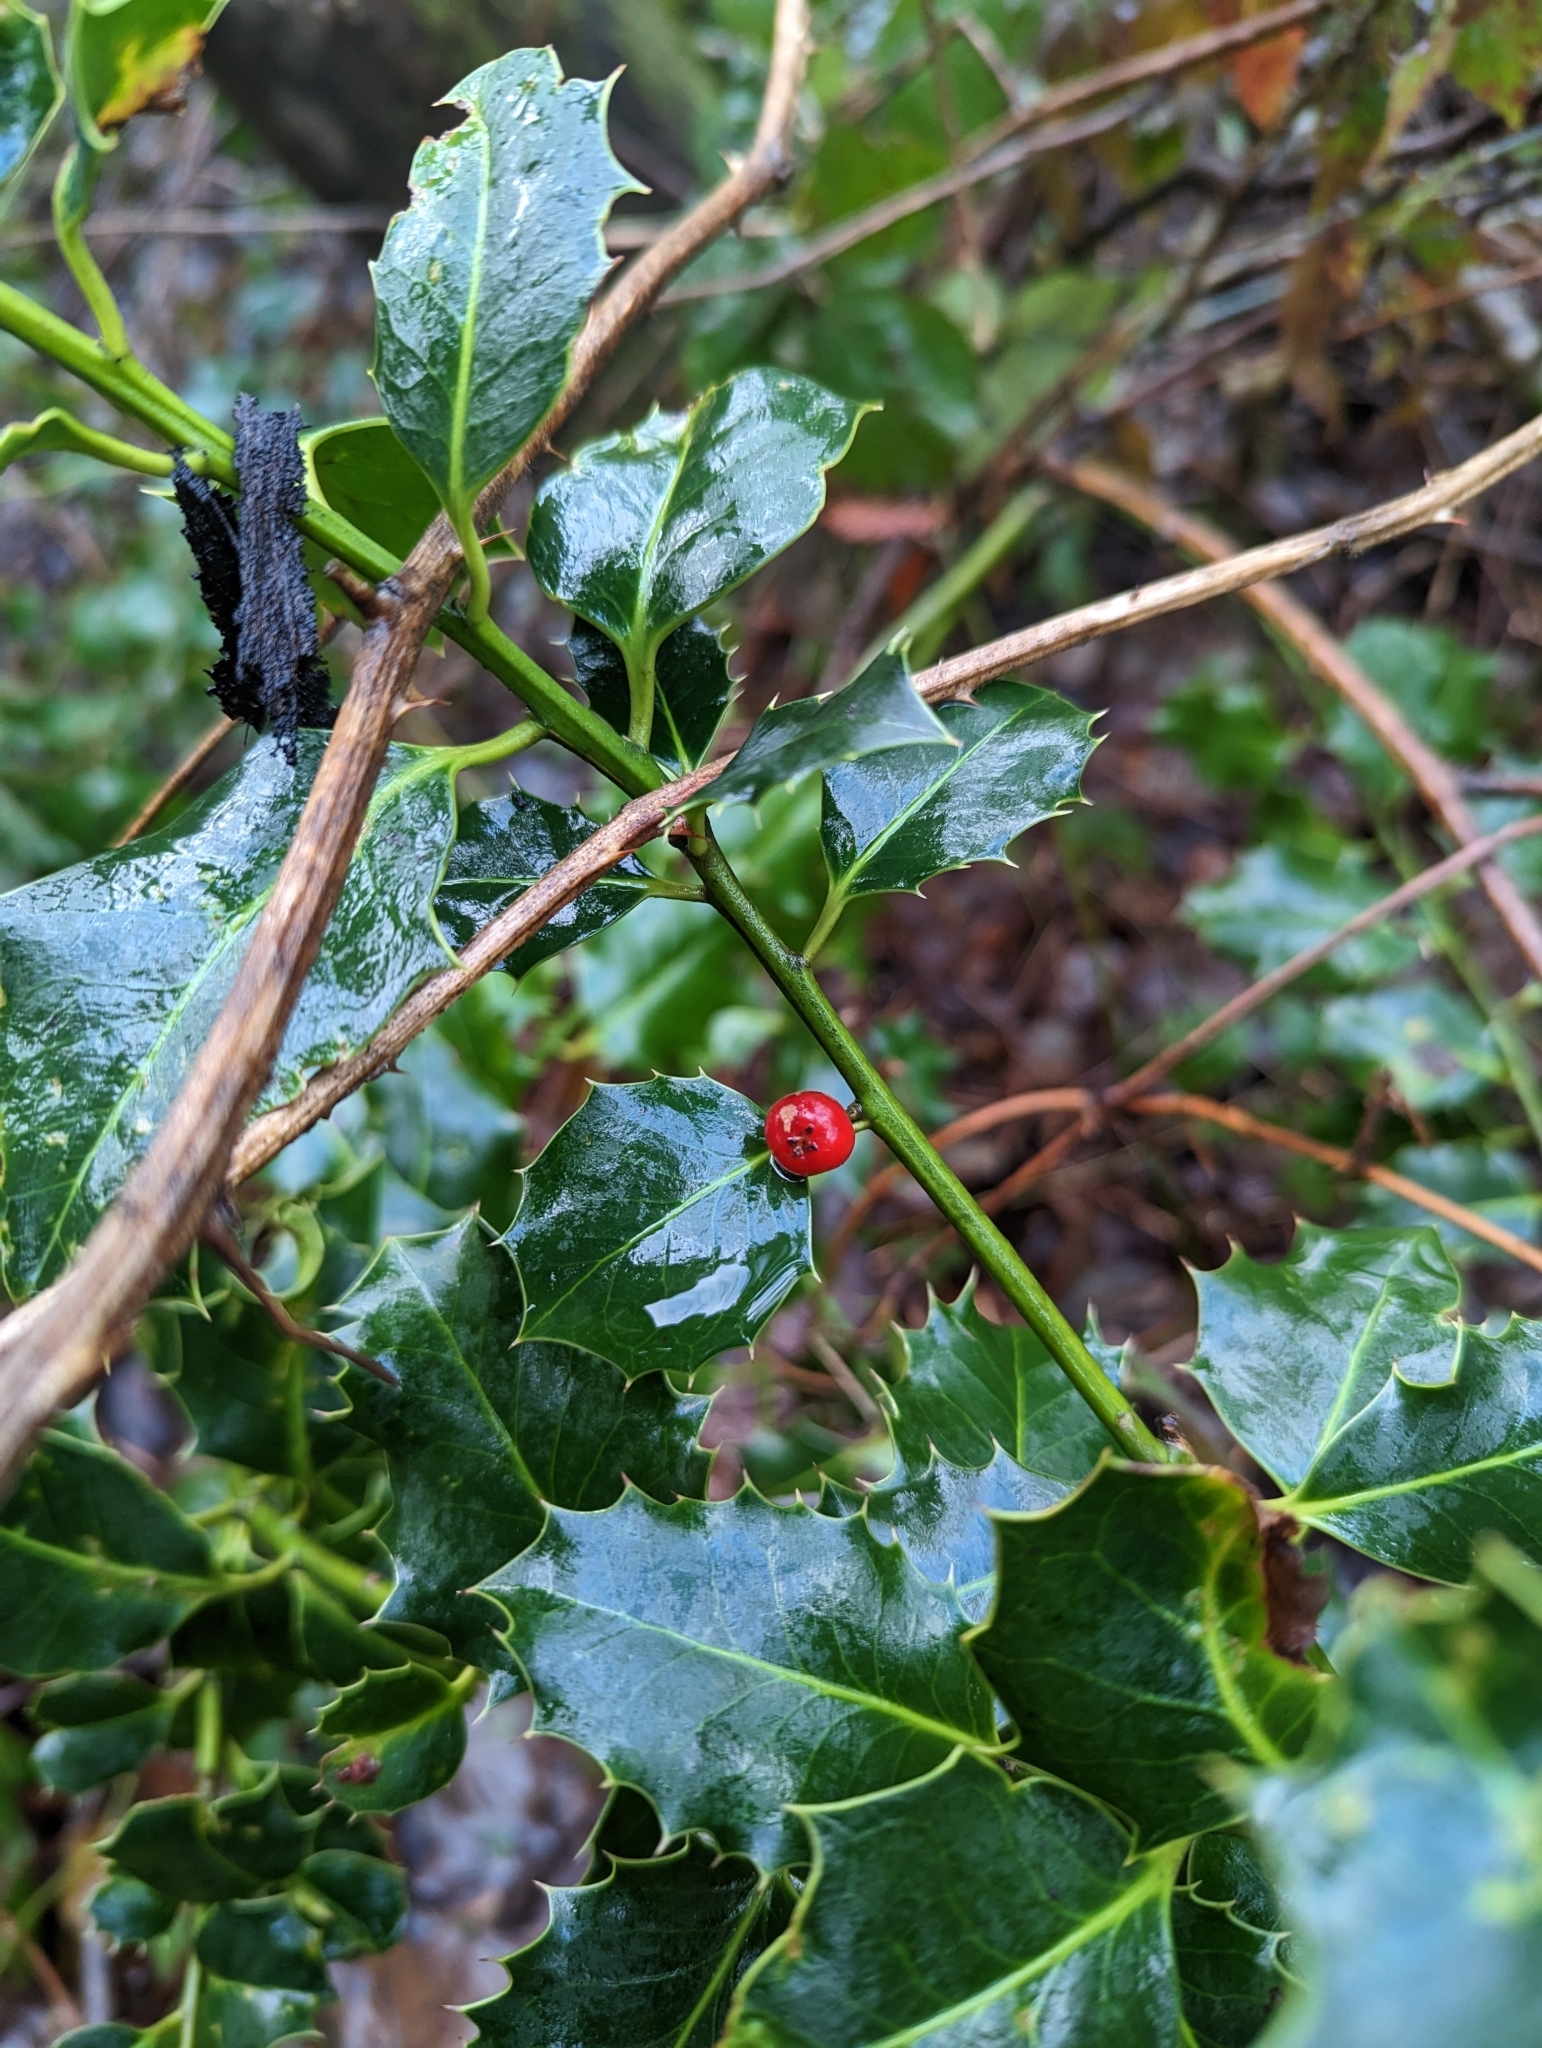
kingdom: Plantae
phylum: Tracheophyta
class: Magnoliopsida
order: Aquifoliales
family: Aquifoliaceae
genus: Ilex
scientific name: Ilex aquifolium
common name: English holly
